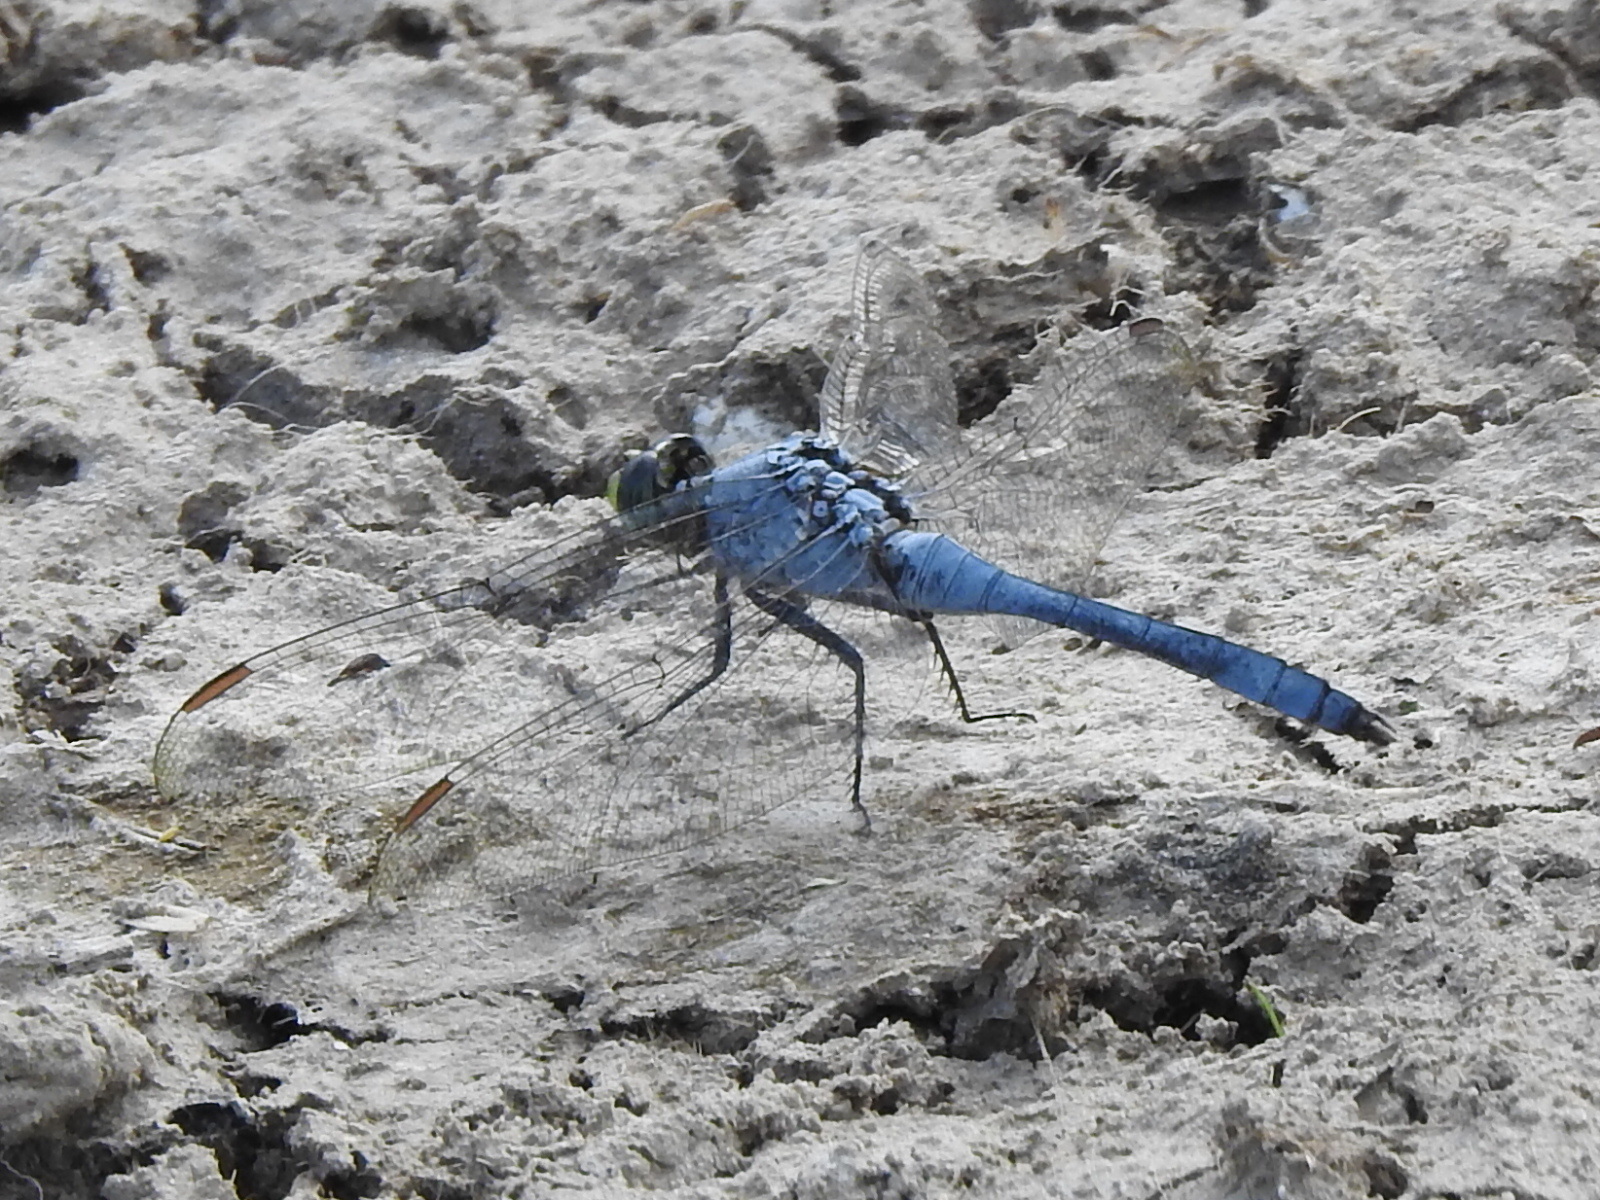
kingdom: Animalia
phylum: Arthropoda
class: Insecta
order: Odonata
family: Libellulidae
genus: Erythemis
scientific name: Erythemis simplicicollis
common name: Eastern pondhawk
